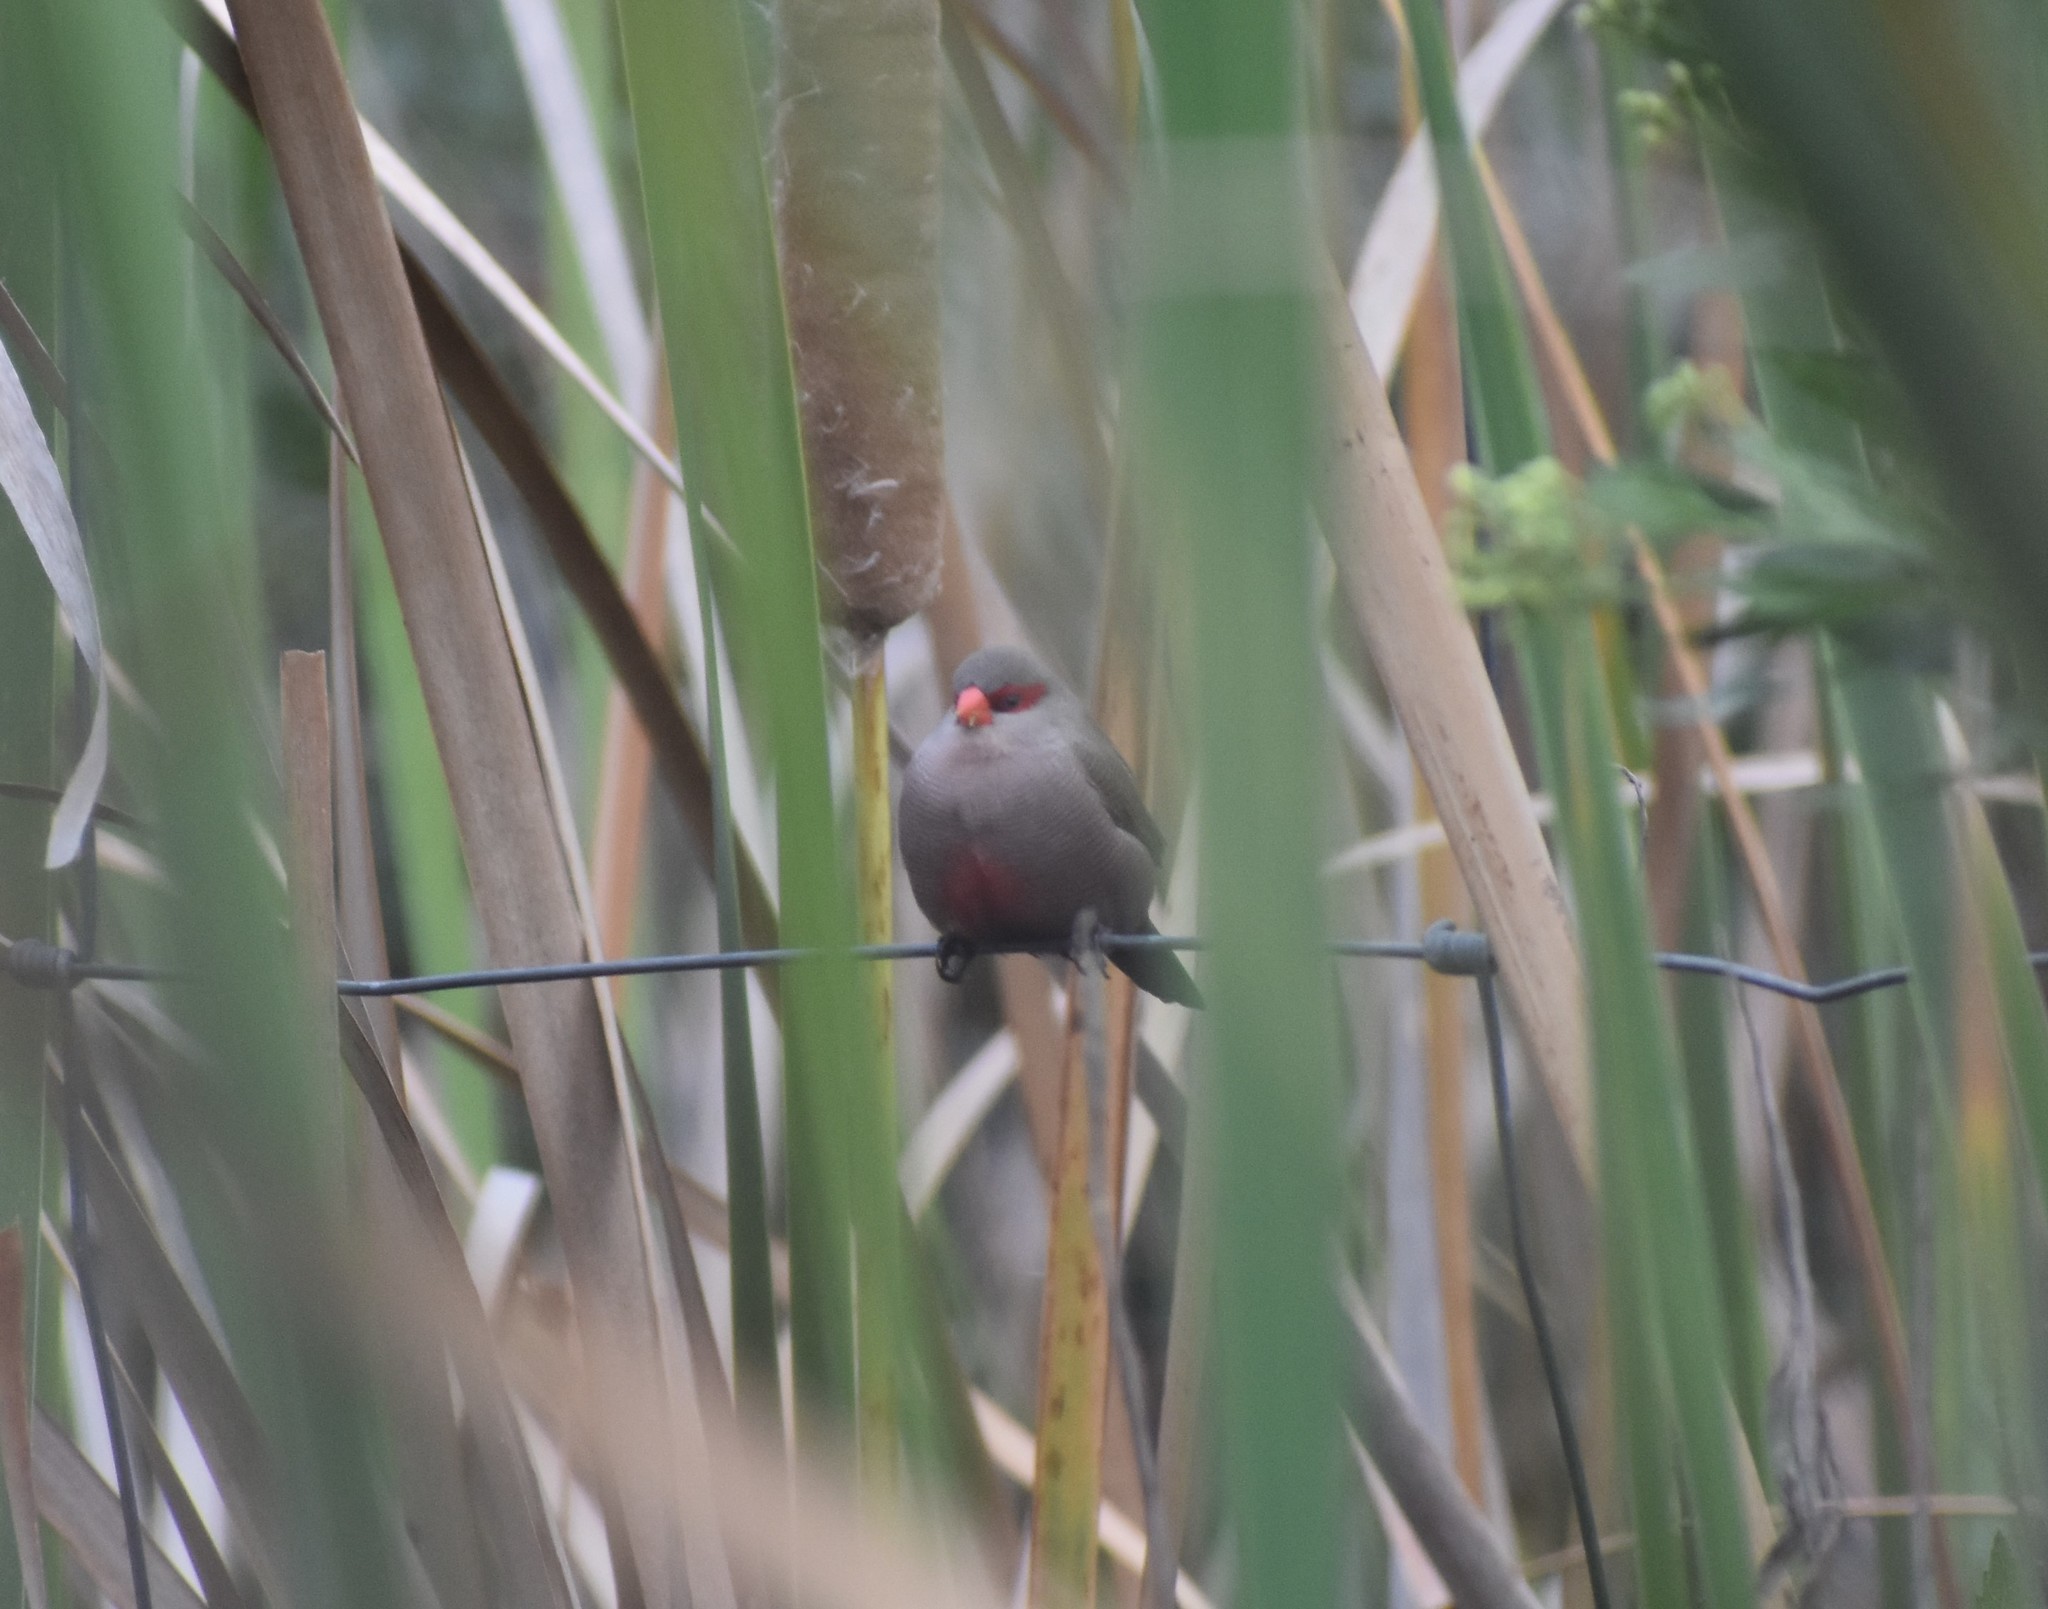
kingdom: Animalia
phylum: Chordata
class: Aves
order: Passeriformes
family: Estrildidae
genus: Estrilda
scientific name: Estrilda astrild
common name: Common waxbill
